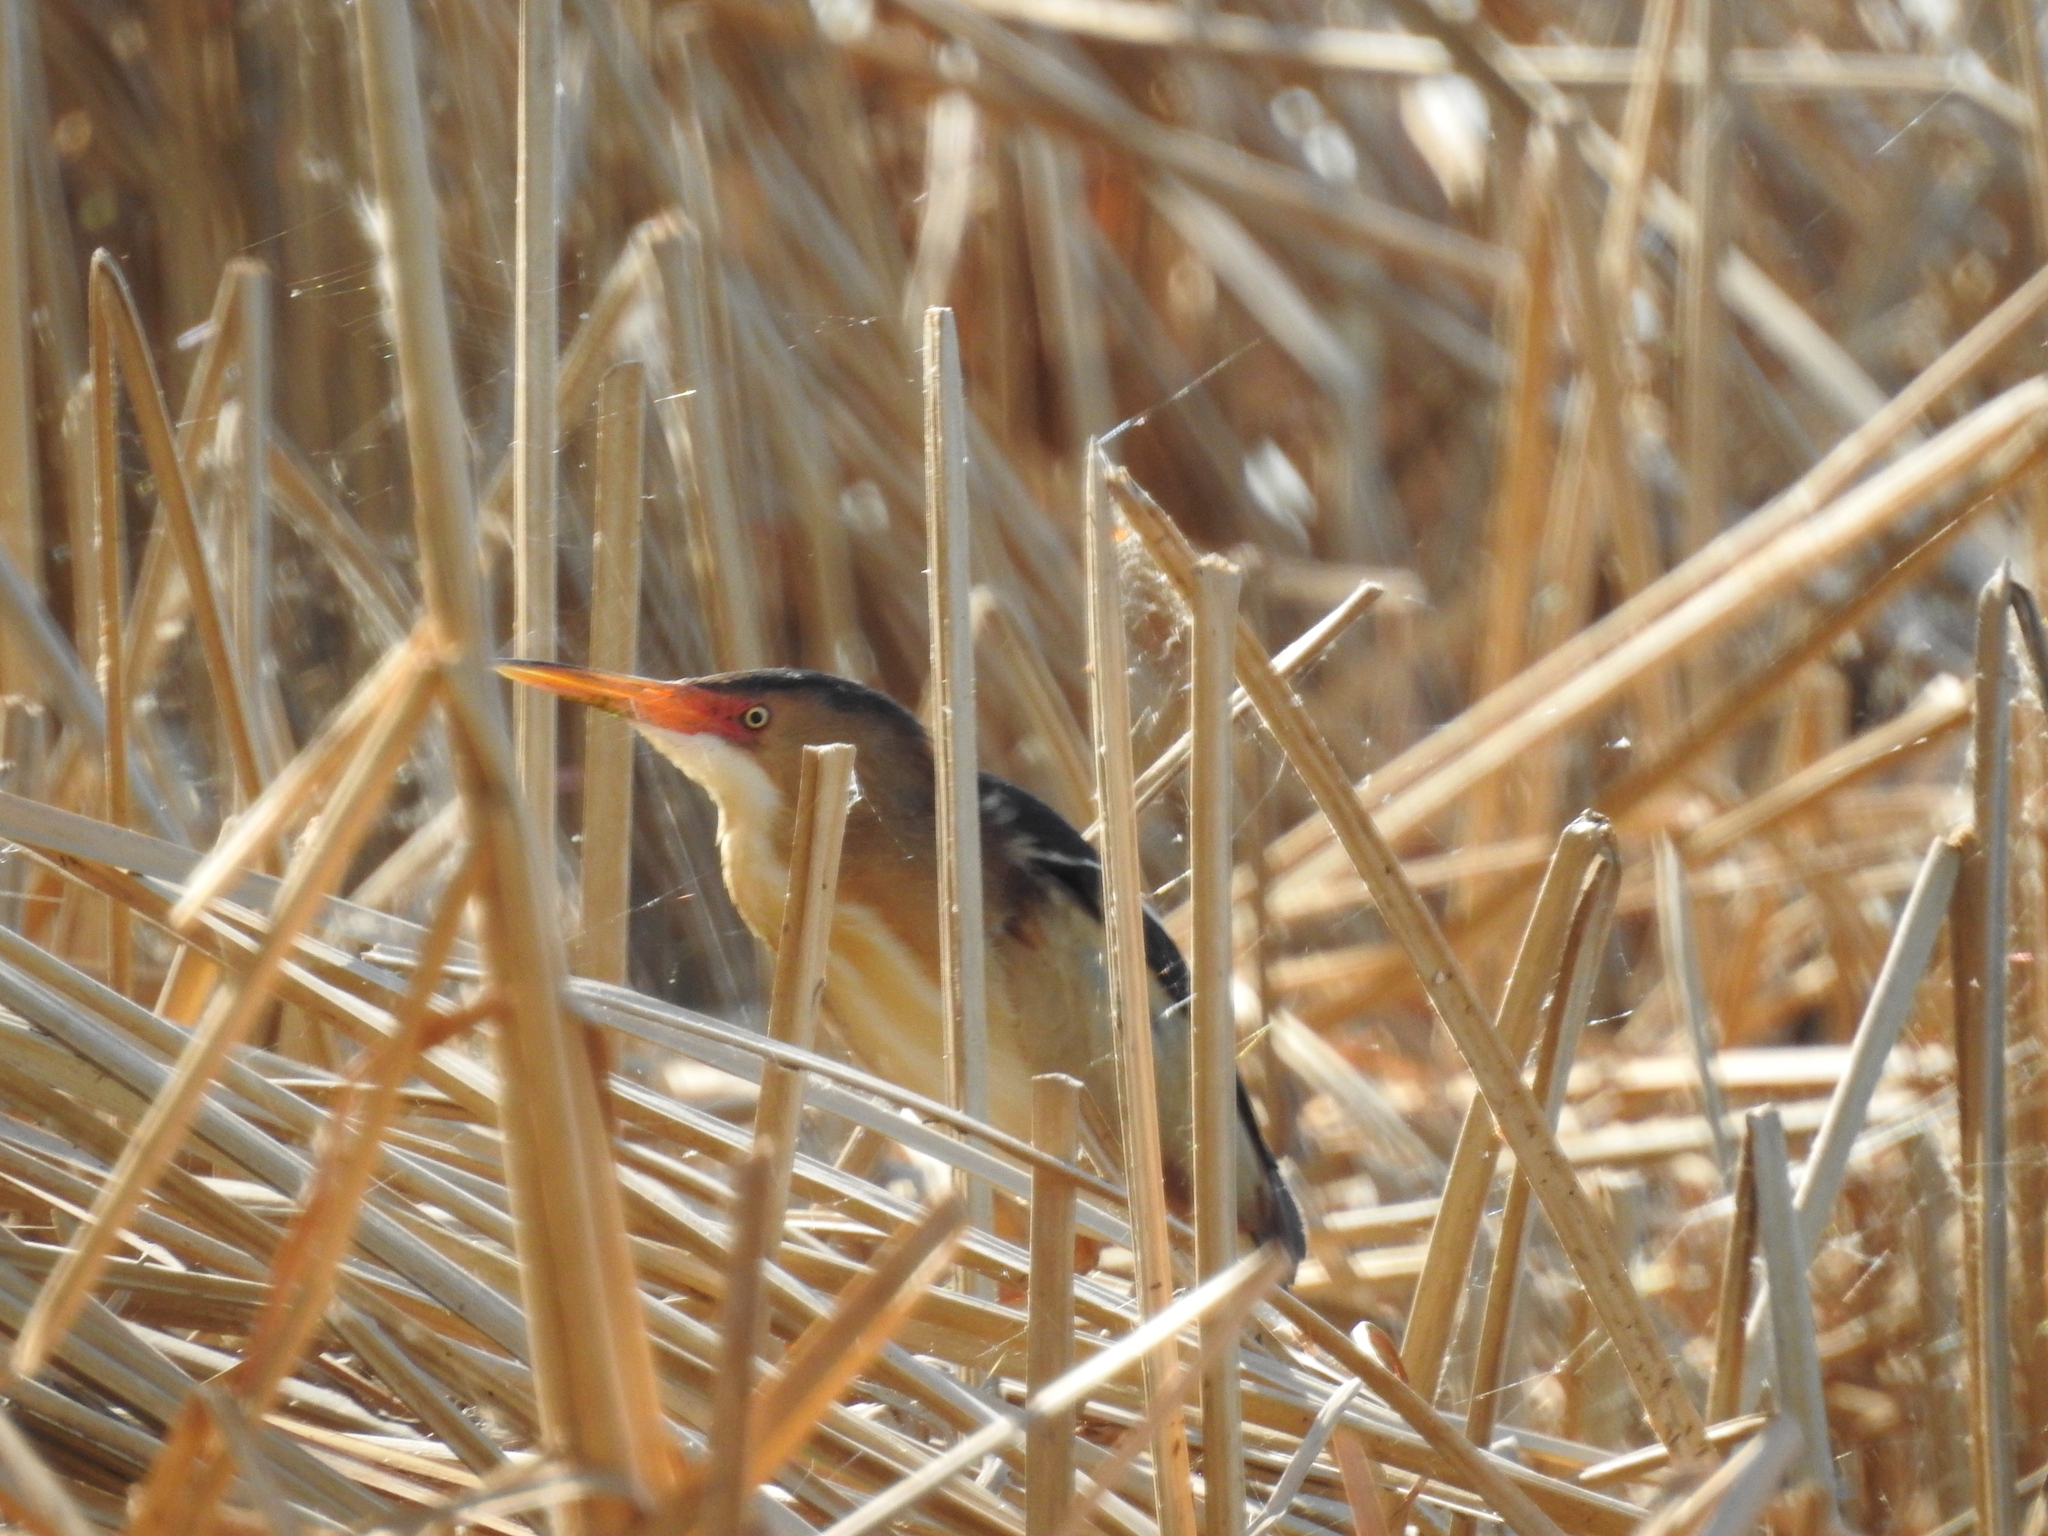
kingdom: Animalia
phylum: Chordata
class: Aves
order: Pelecaniformes
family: Ardeidae
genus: Ixobrychus
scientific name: Ixobrychus exilis
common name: Least bittern
